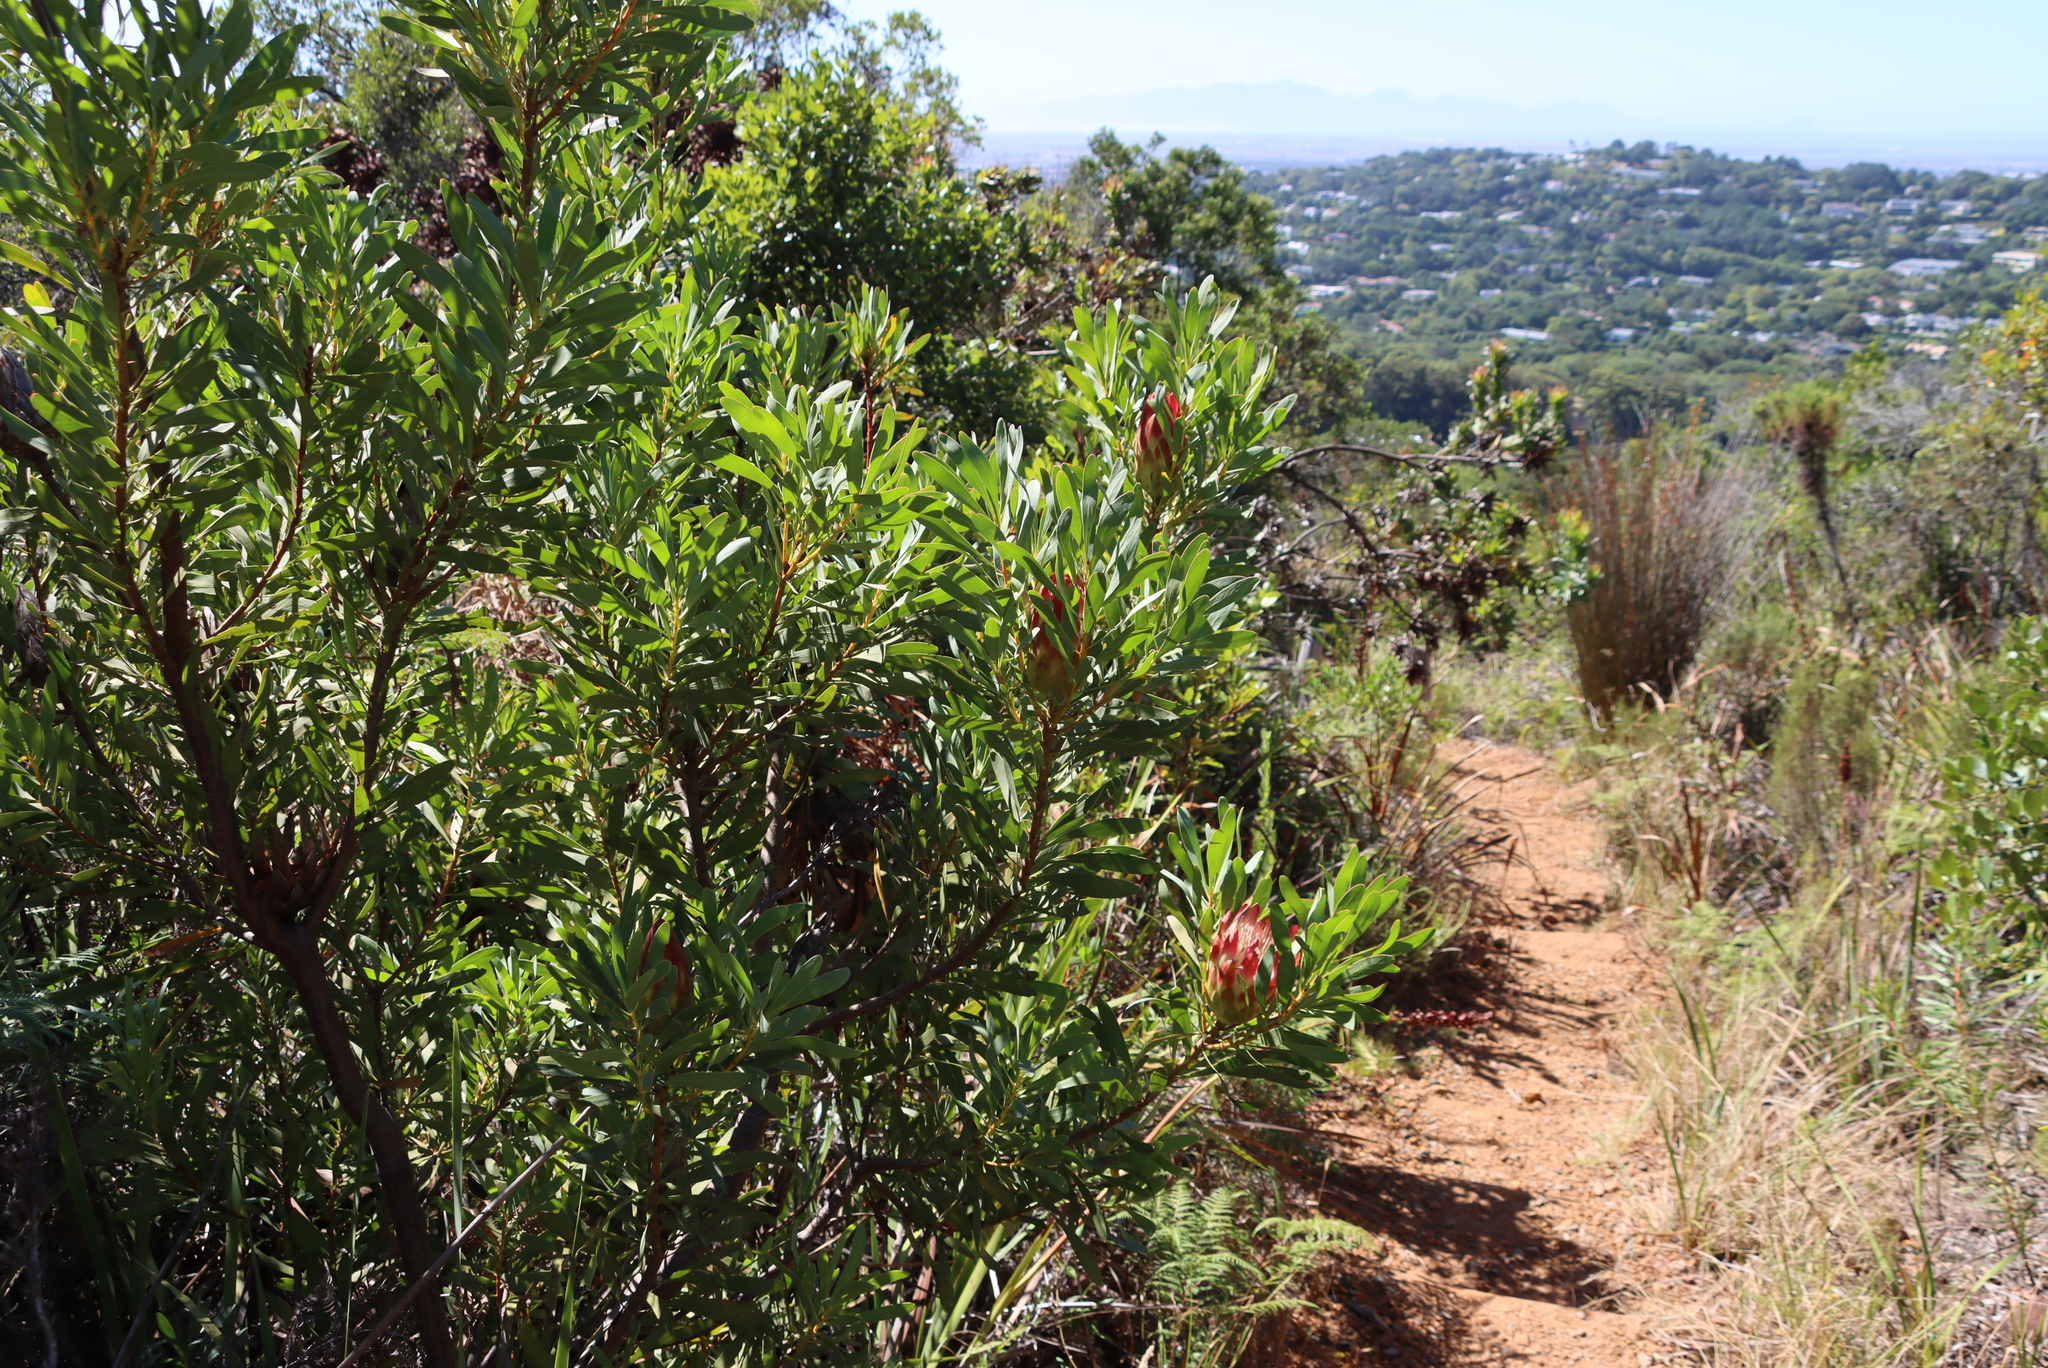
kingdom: Plantae
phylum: Tracheophyta
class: Magnoliopsida
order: Proteales
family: Proteaceae
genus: Protea
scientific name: Protea repens
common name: Sugarbush
